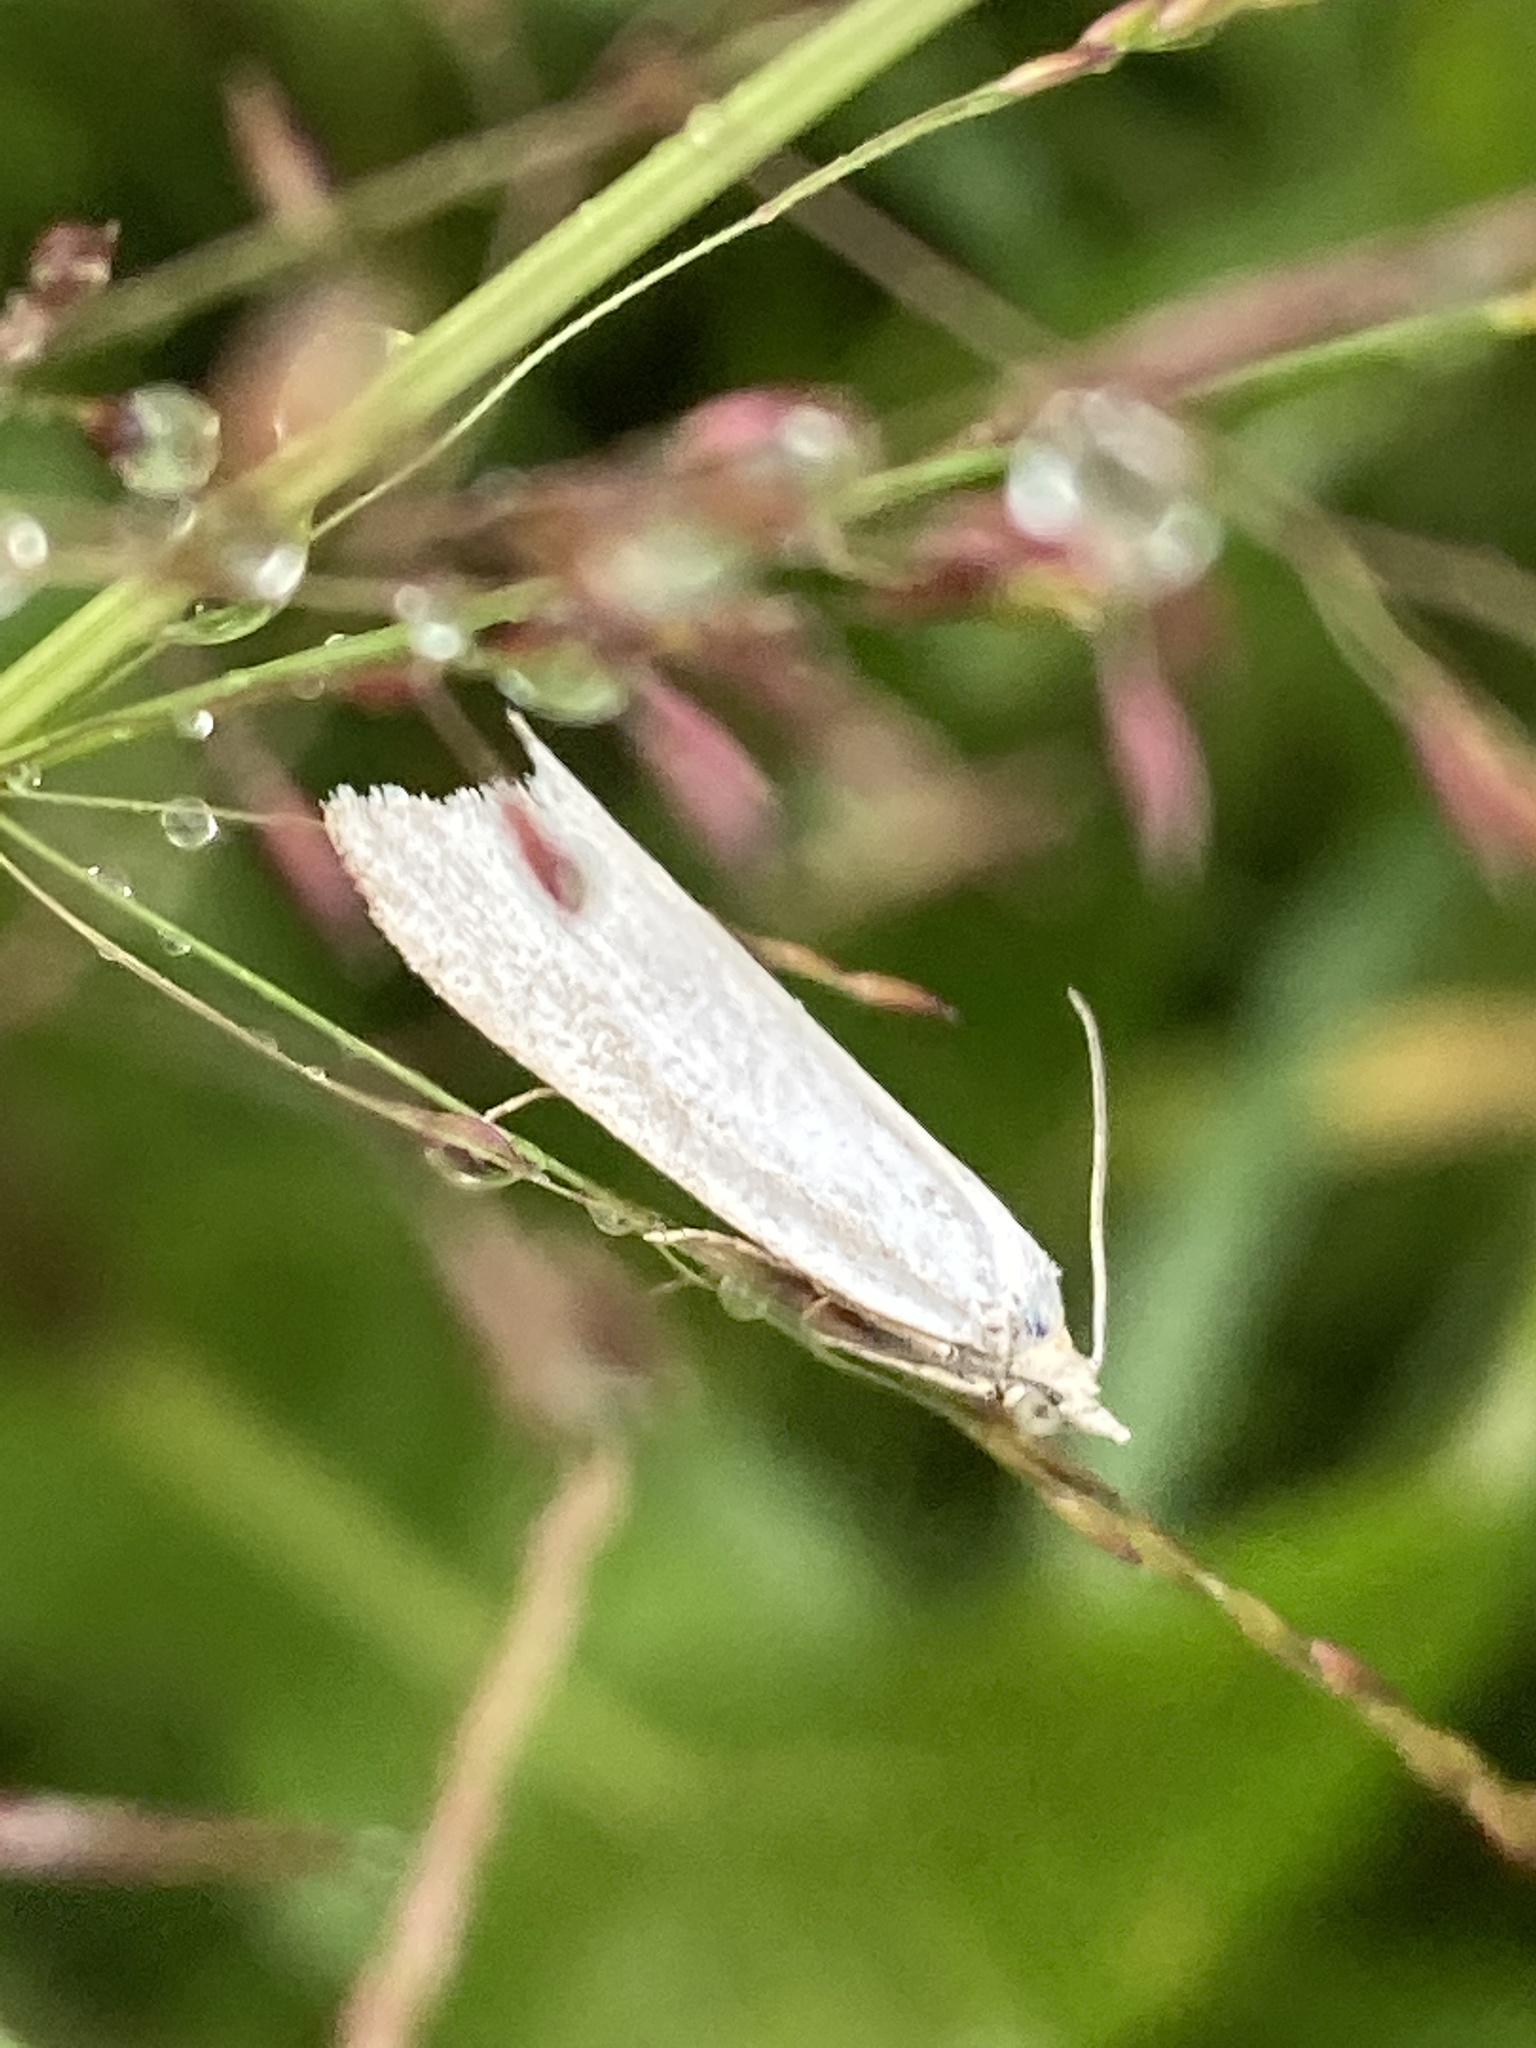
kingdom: Animalia
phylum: Arthropoda
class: Insecta
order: Lepidoptera
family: Tortricidae
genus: Eana
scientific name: Eana argentana
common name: Silver shade
